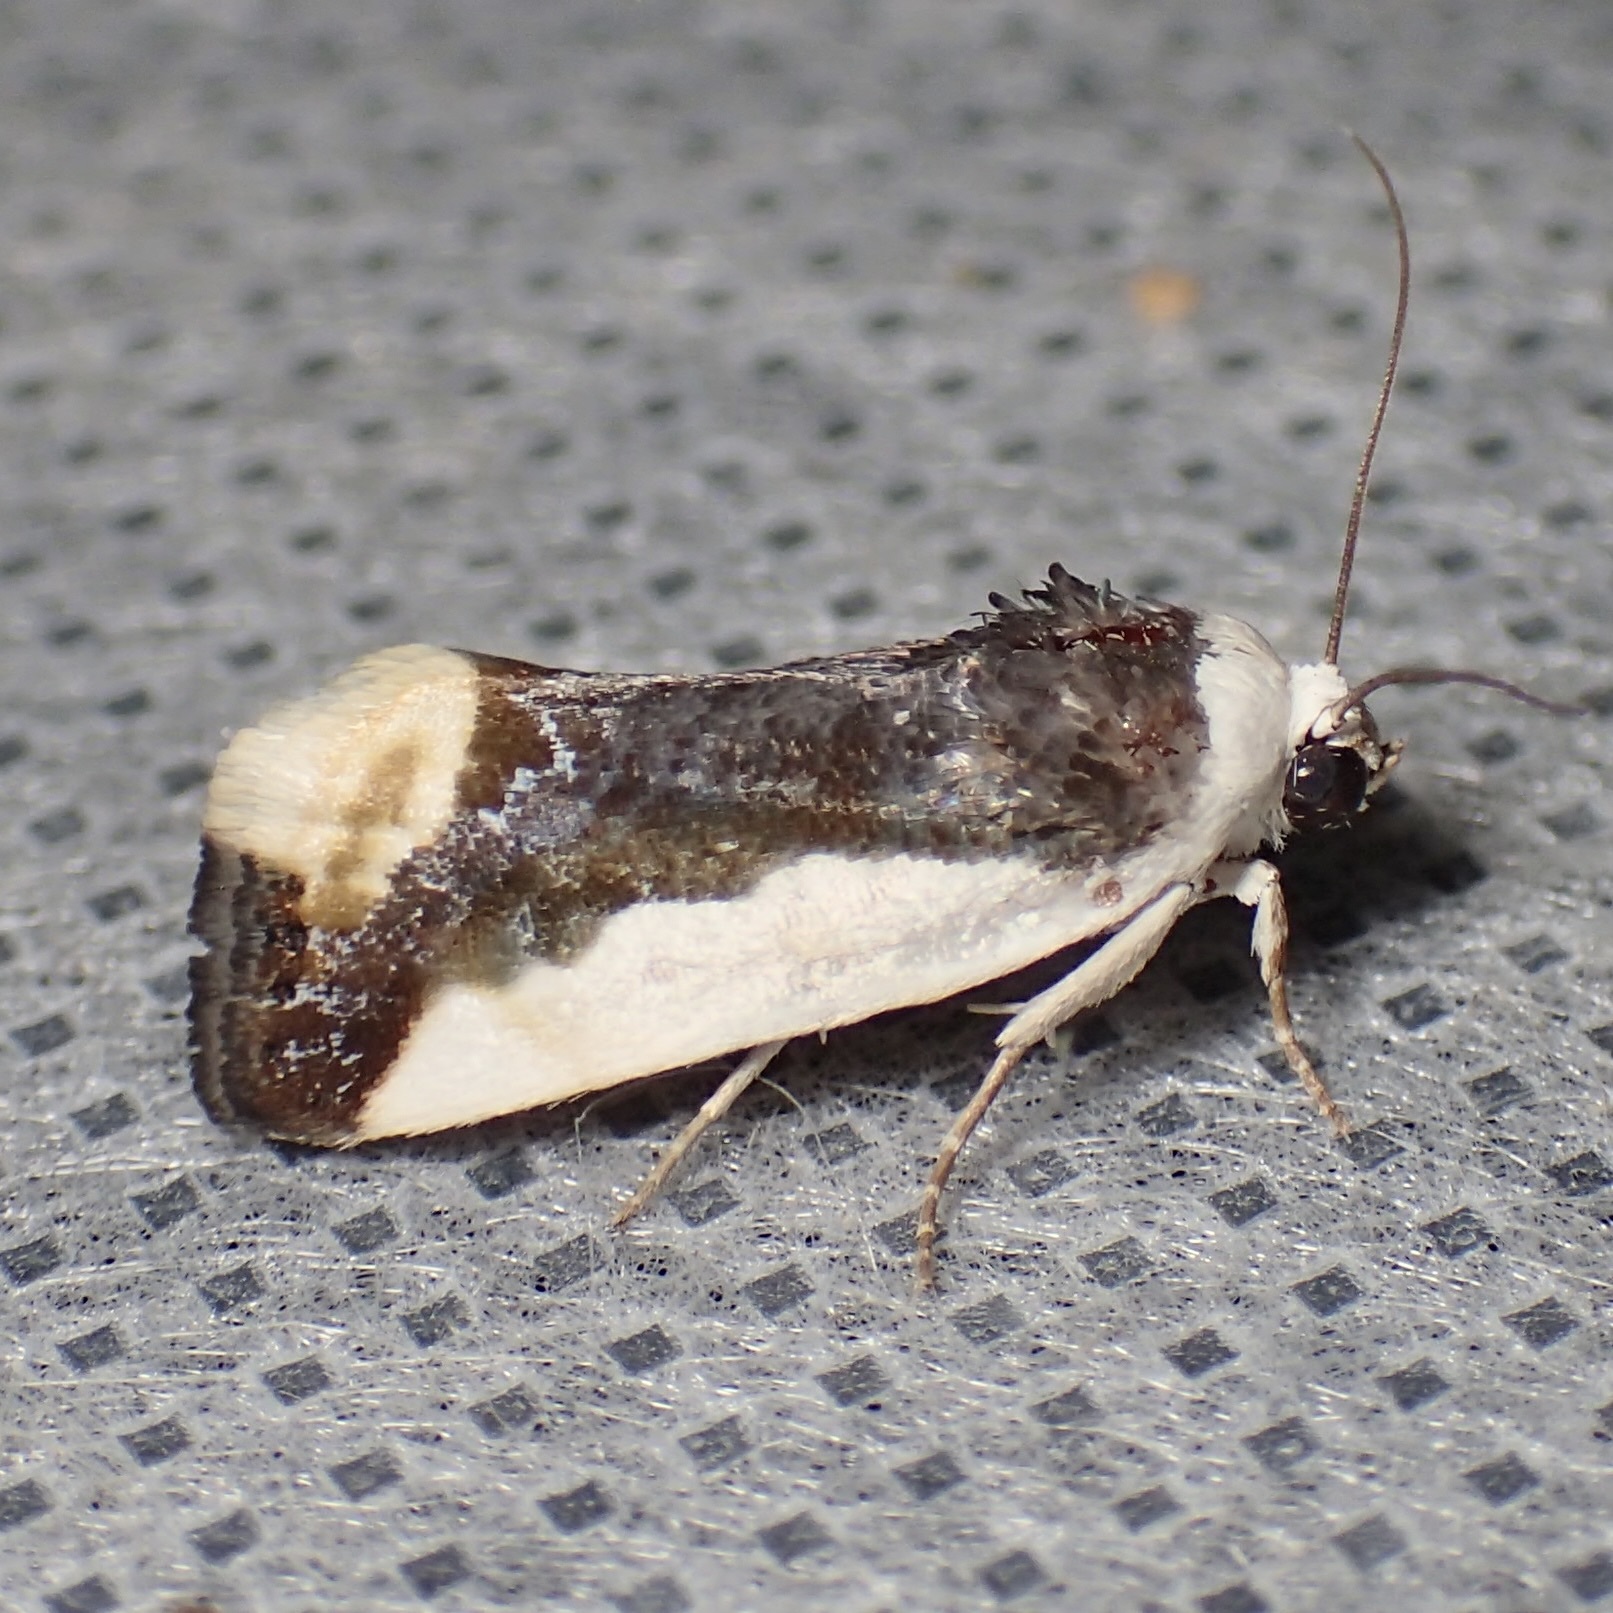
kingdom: Animalia
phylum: Arthropoda
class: Insecta
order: Lepidoptera
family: Noctuidae
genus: Acontia
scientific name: Acontia Tarache expolita
